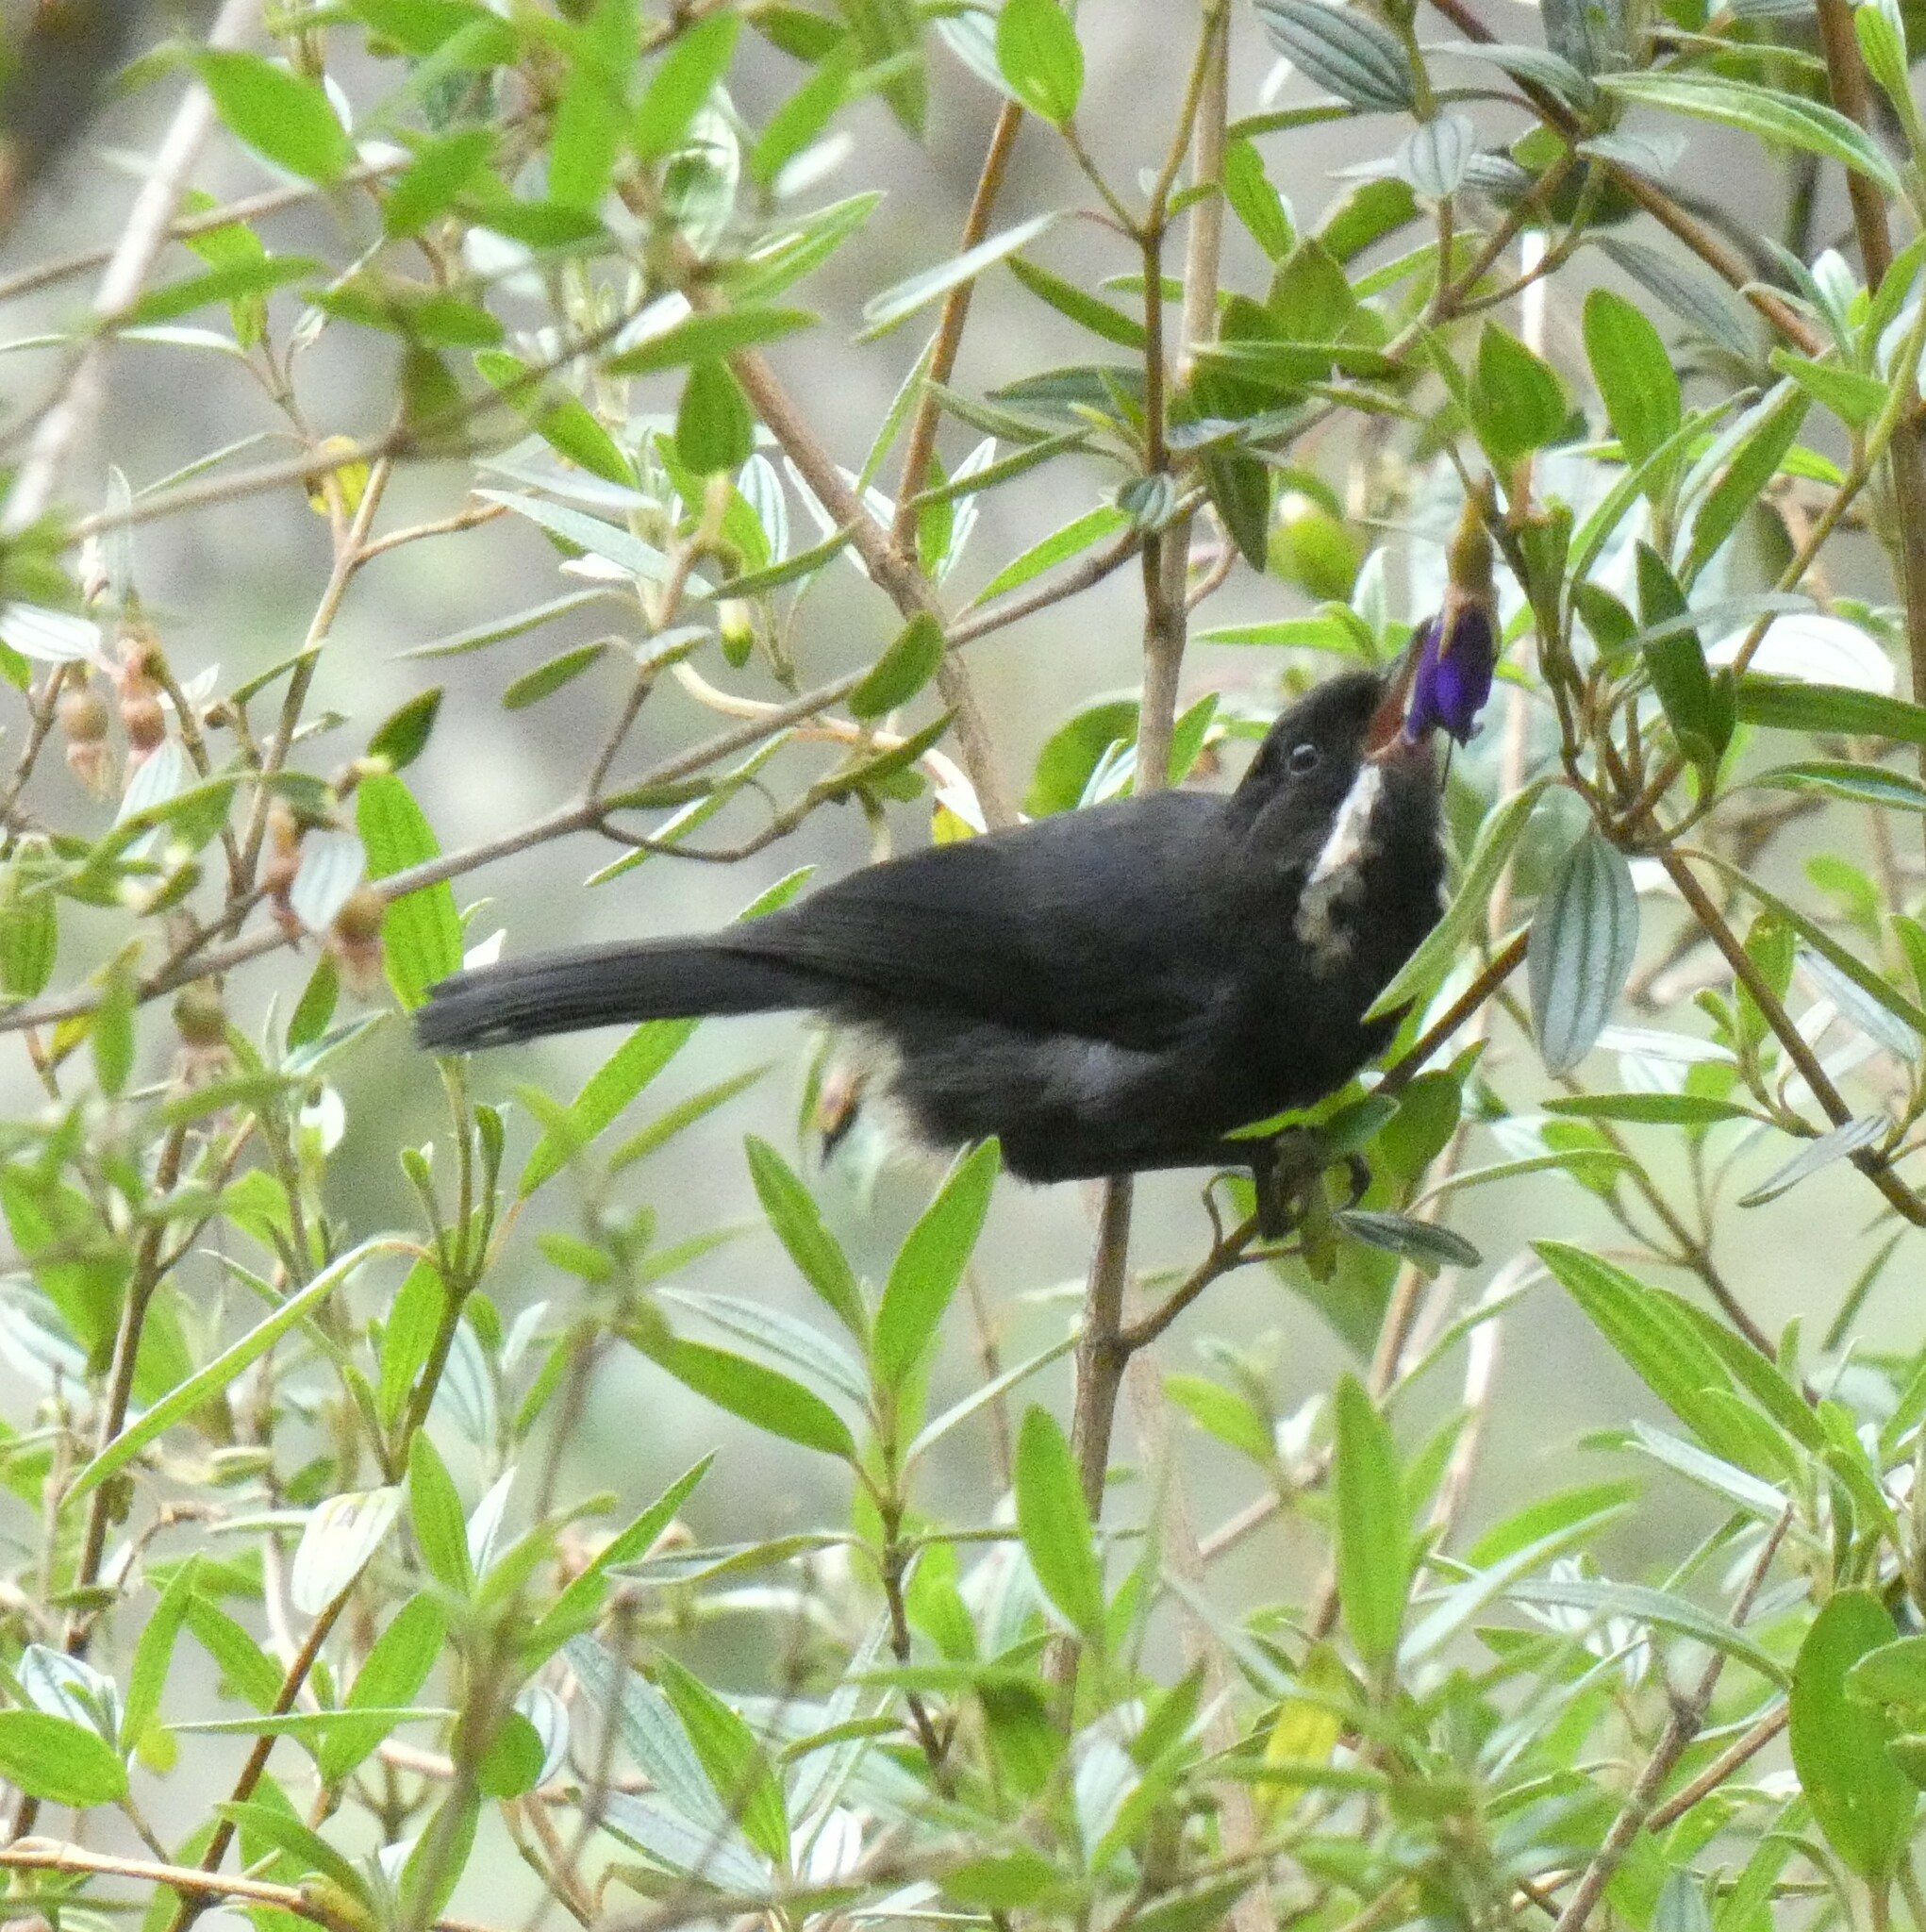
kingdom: Animalia
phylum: Chordata
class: Aves
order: Passeriformes
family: Thraupidae
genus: Diglossa
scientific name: Diglossa mystacalis
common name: Moustached flowerpiercer
